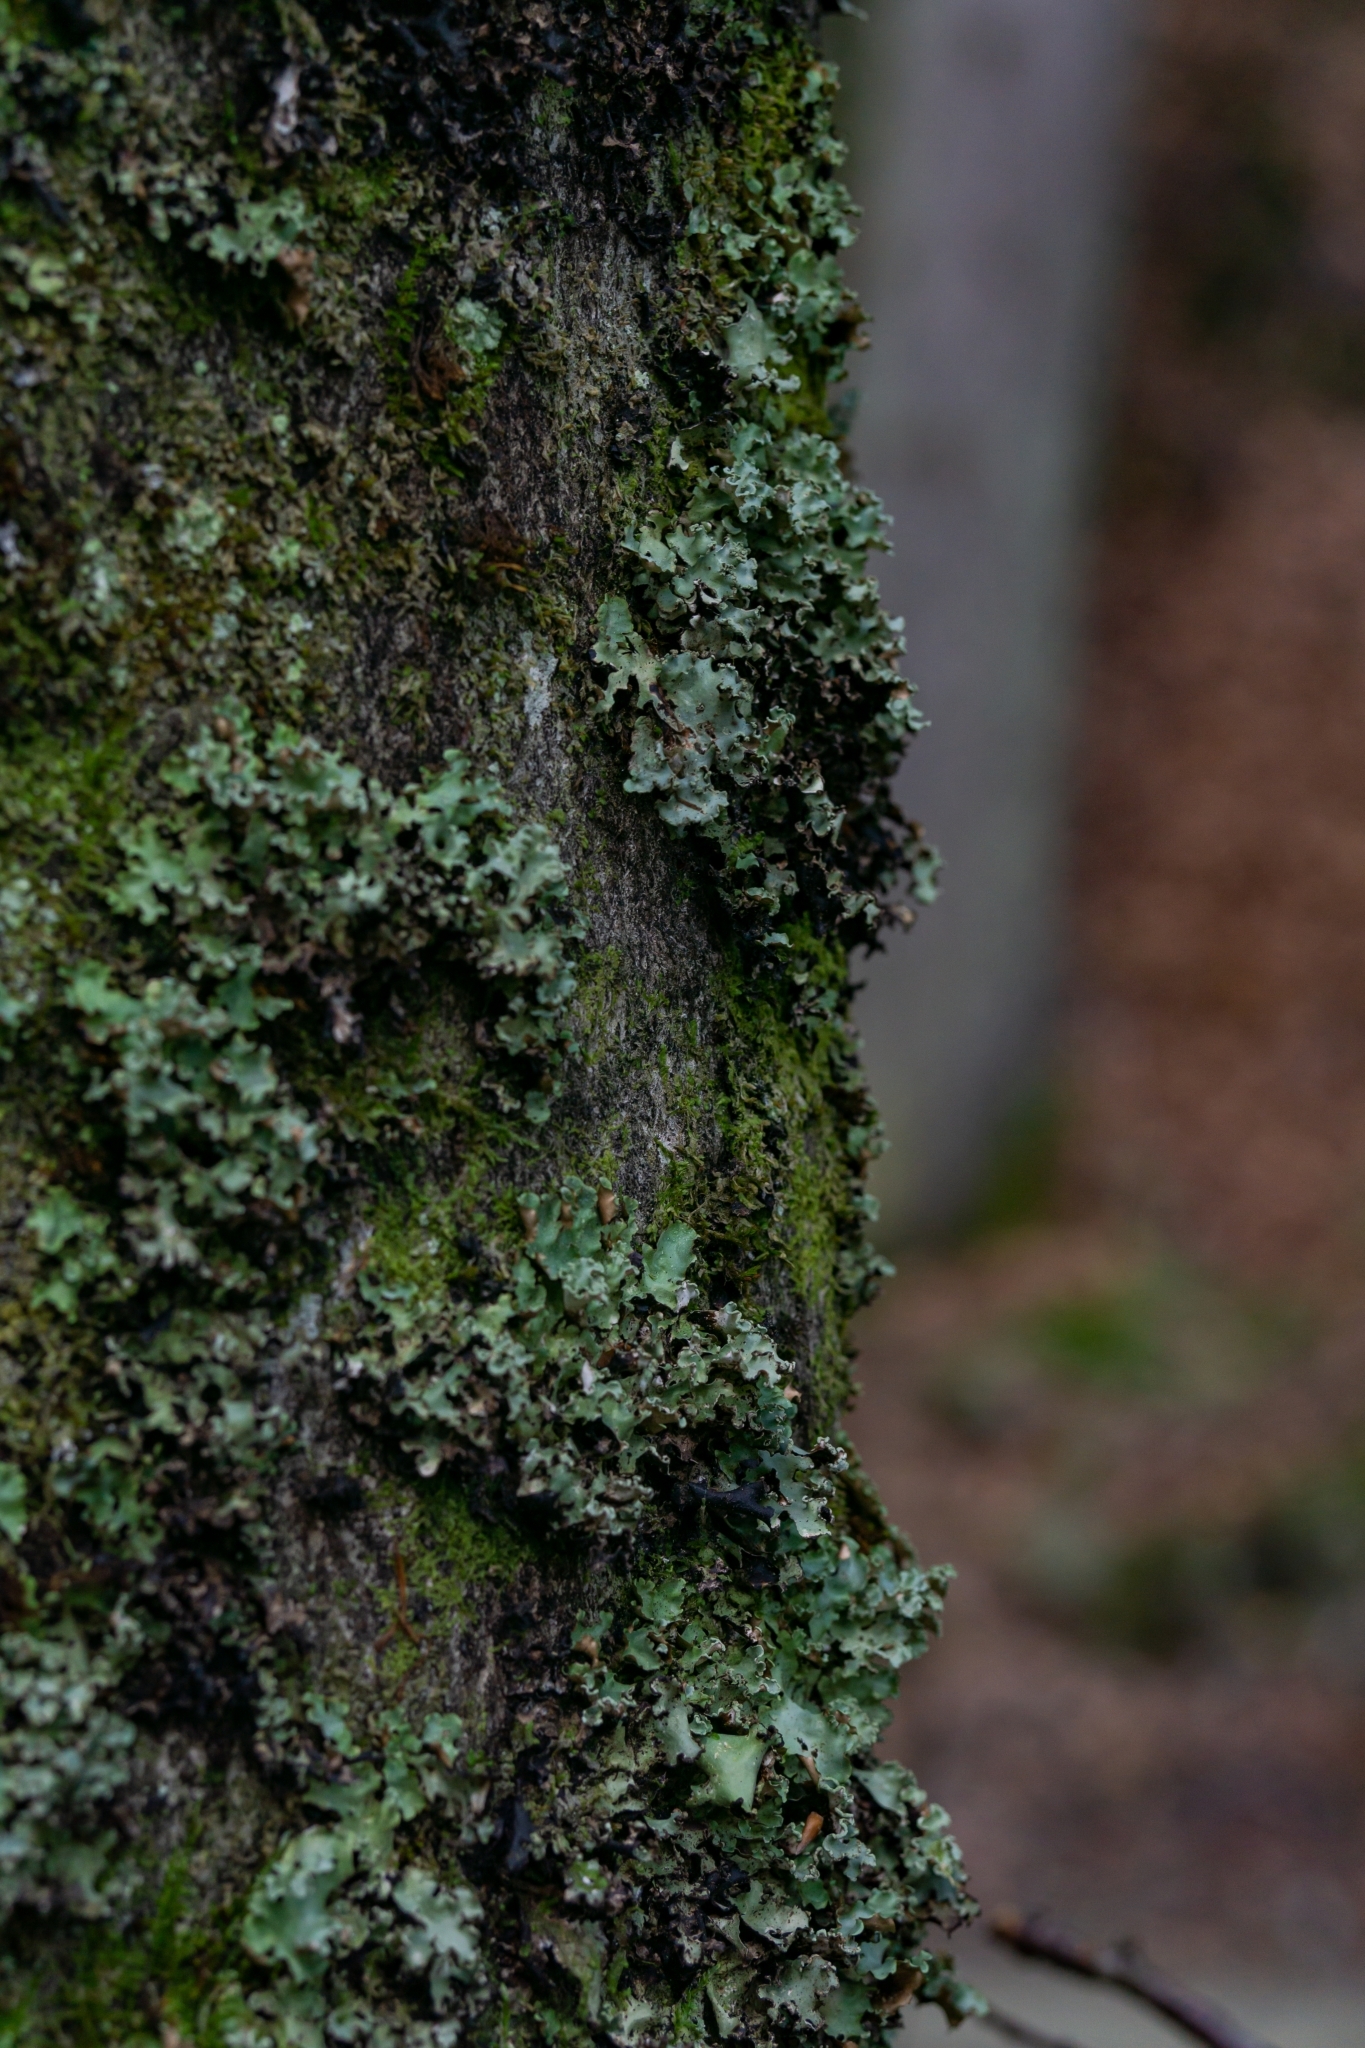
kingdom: Fungi
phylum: Ascomycota
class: Lecanoromycetes
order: Lecanorales
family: Parmeliaceae
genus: Cetrelia
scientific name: Cetrelia
